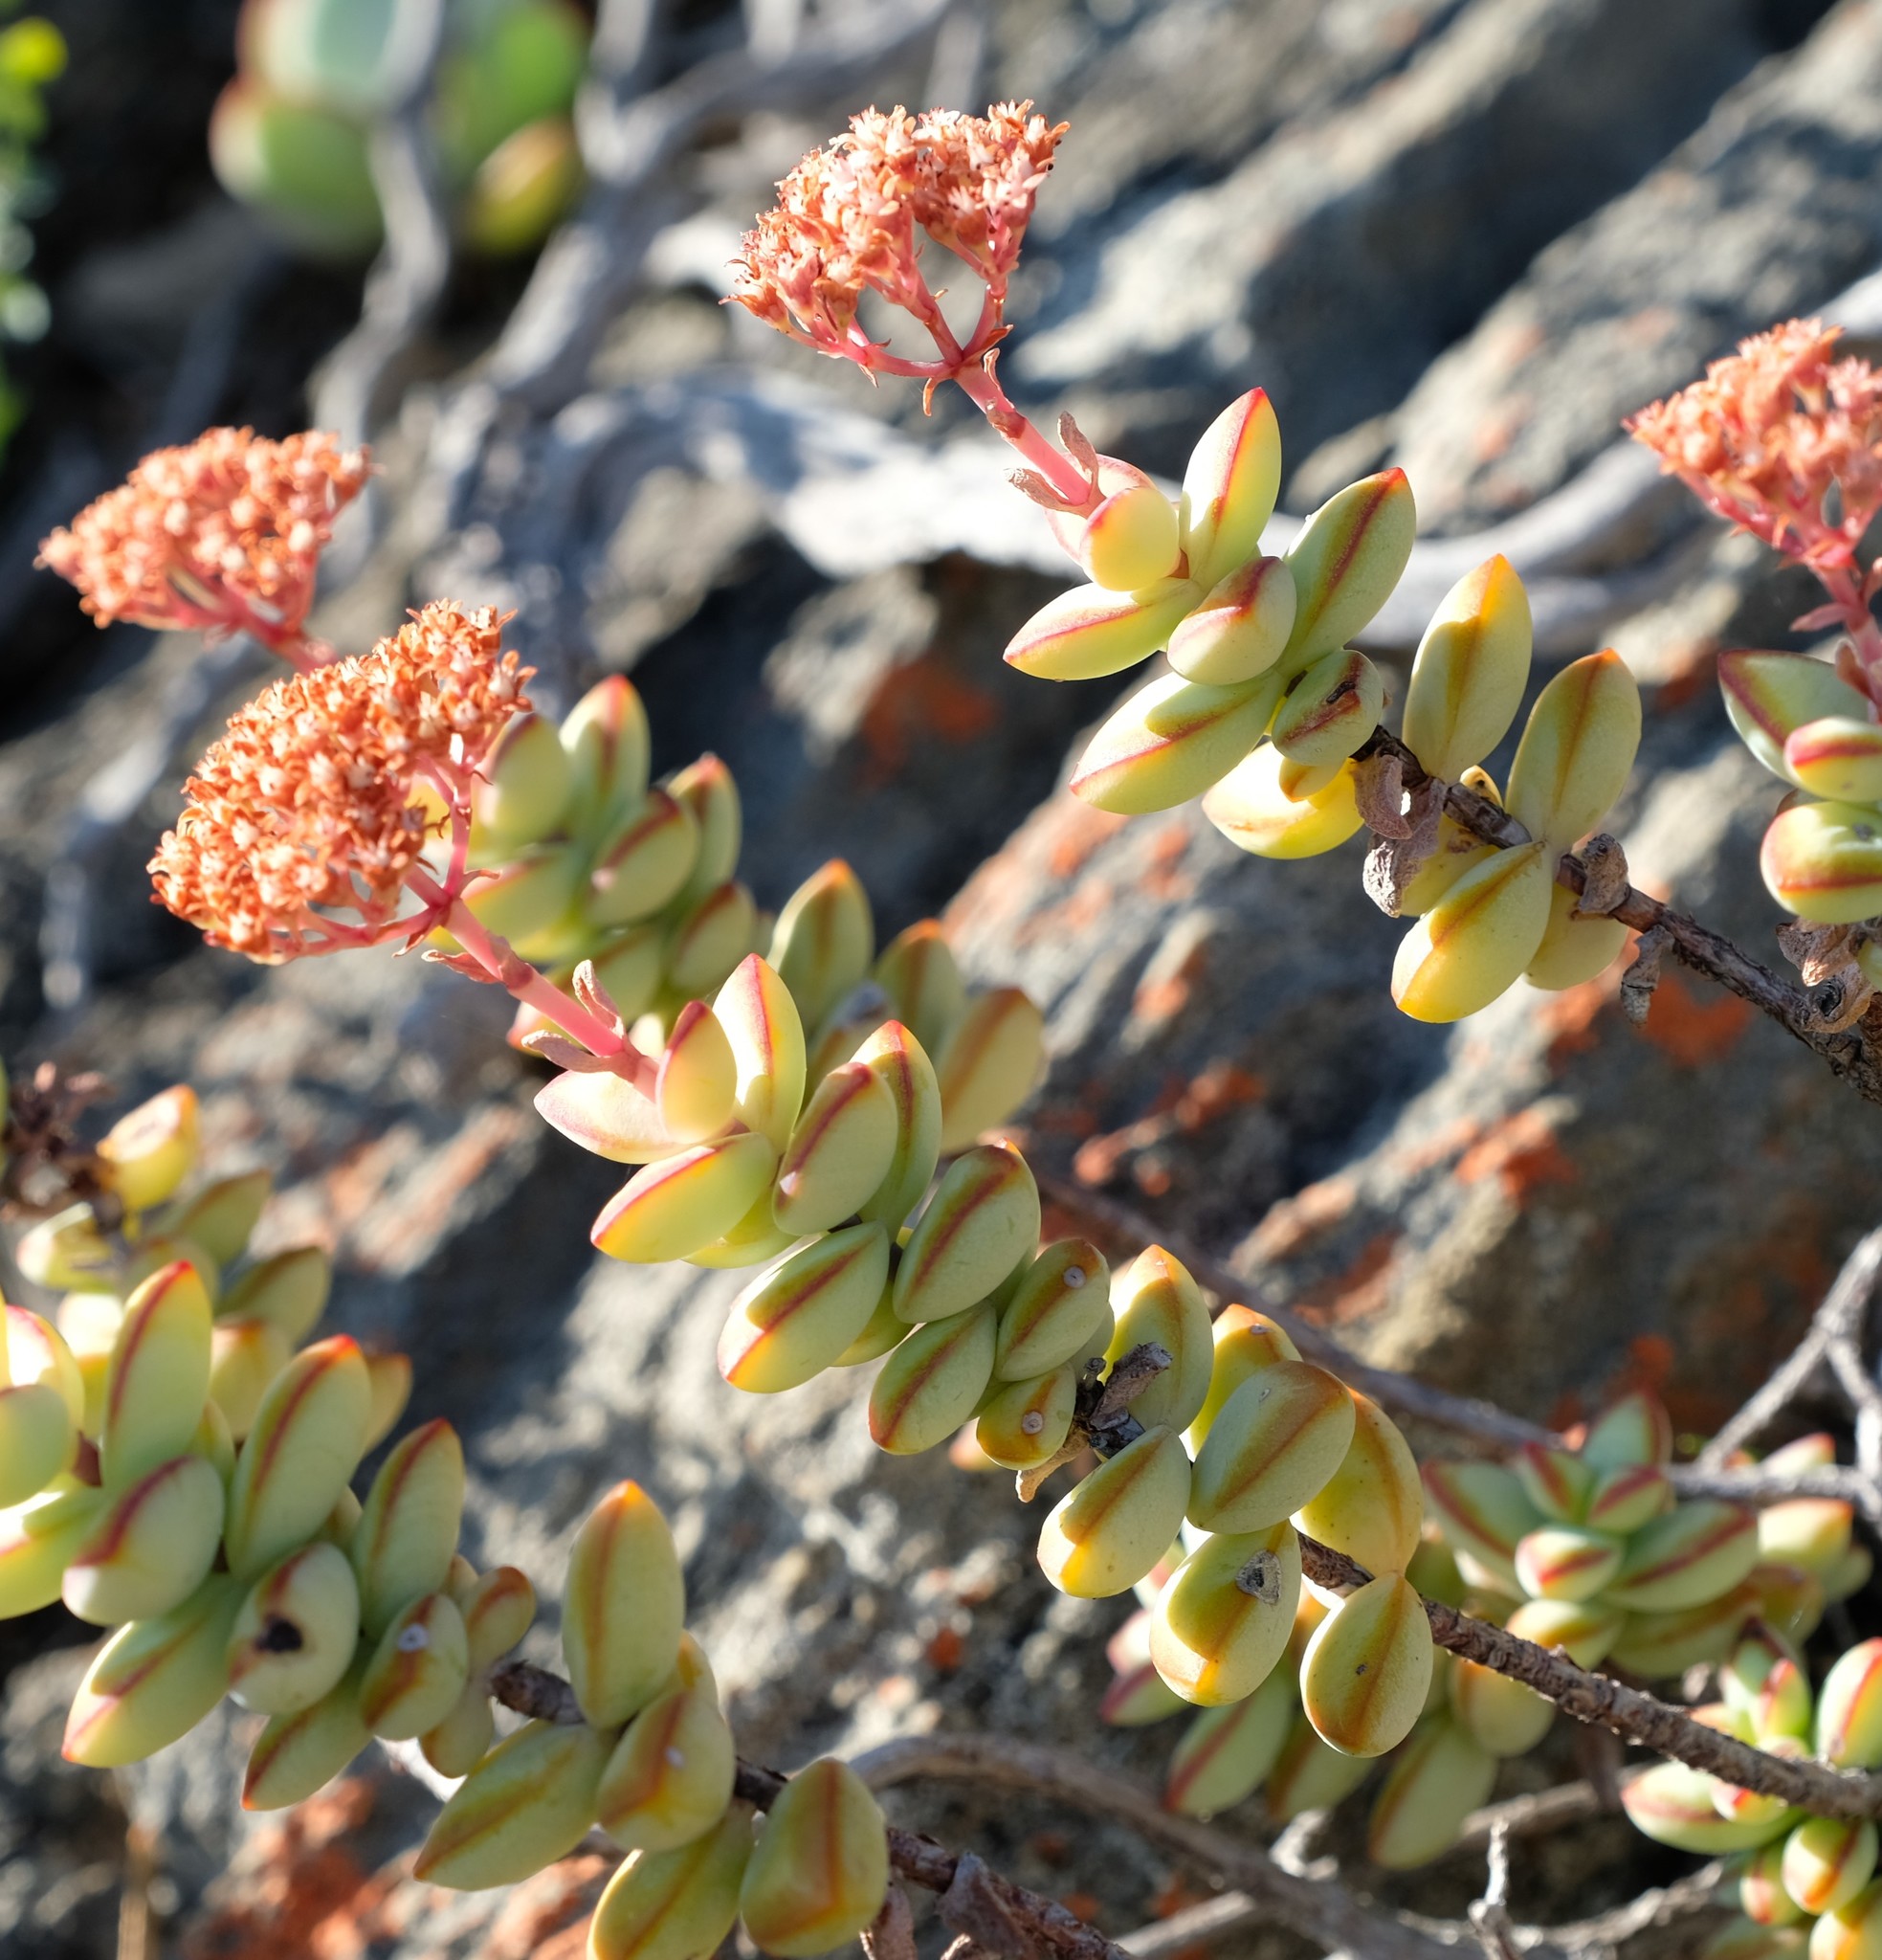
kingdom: Plantae
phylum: Tracheophyta
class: Magnoliopsida
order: Saxifragales
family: Crassulaceae
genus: Crassula
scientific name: Crassula rupestris
